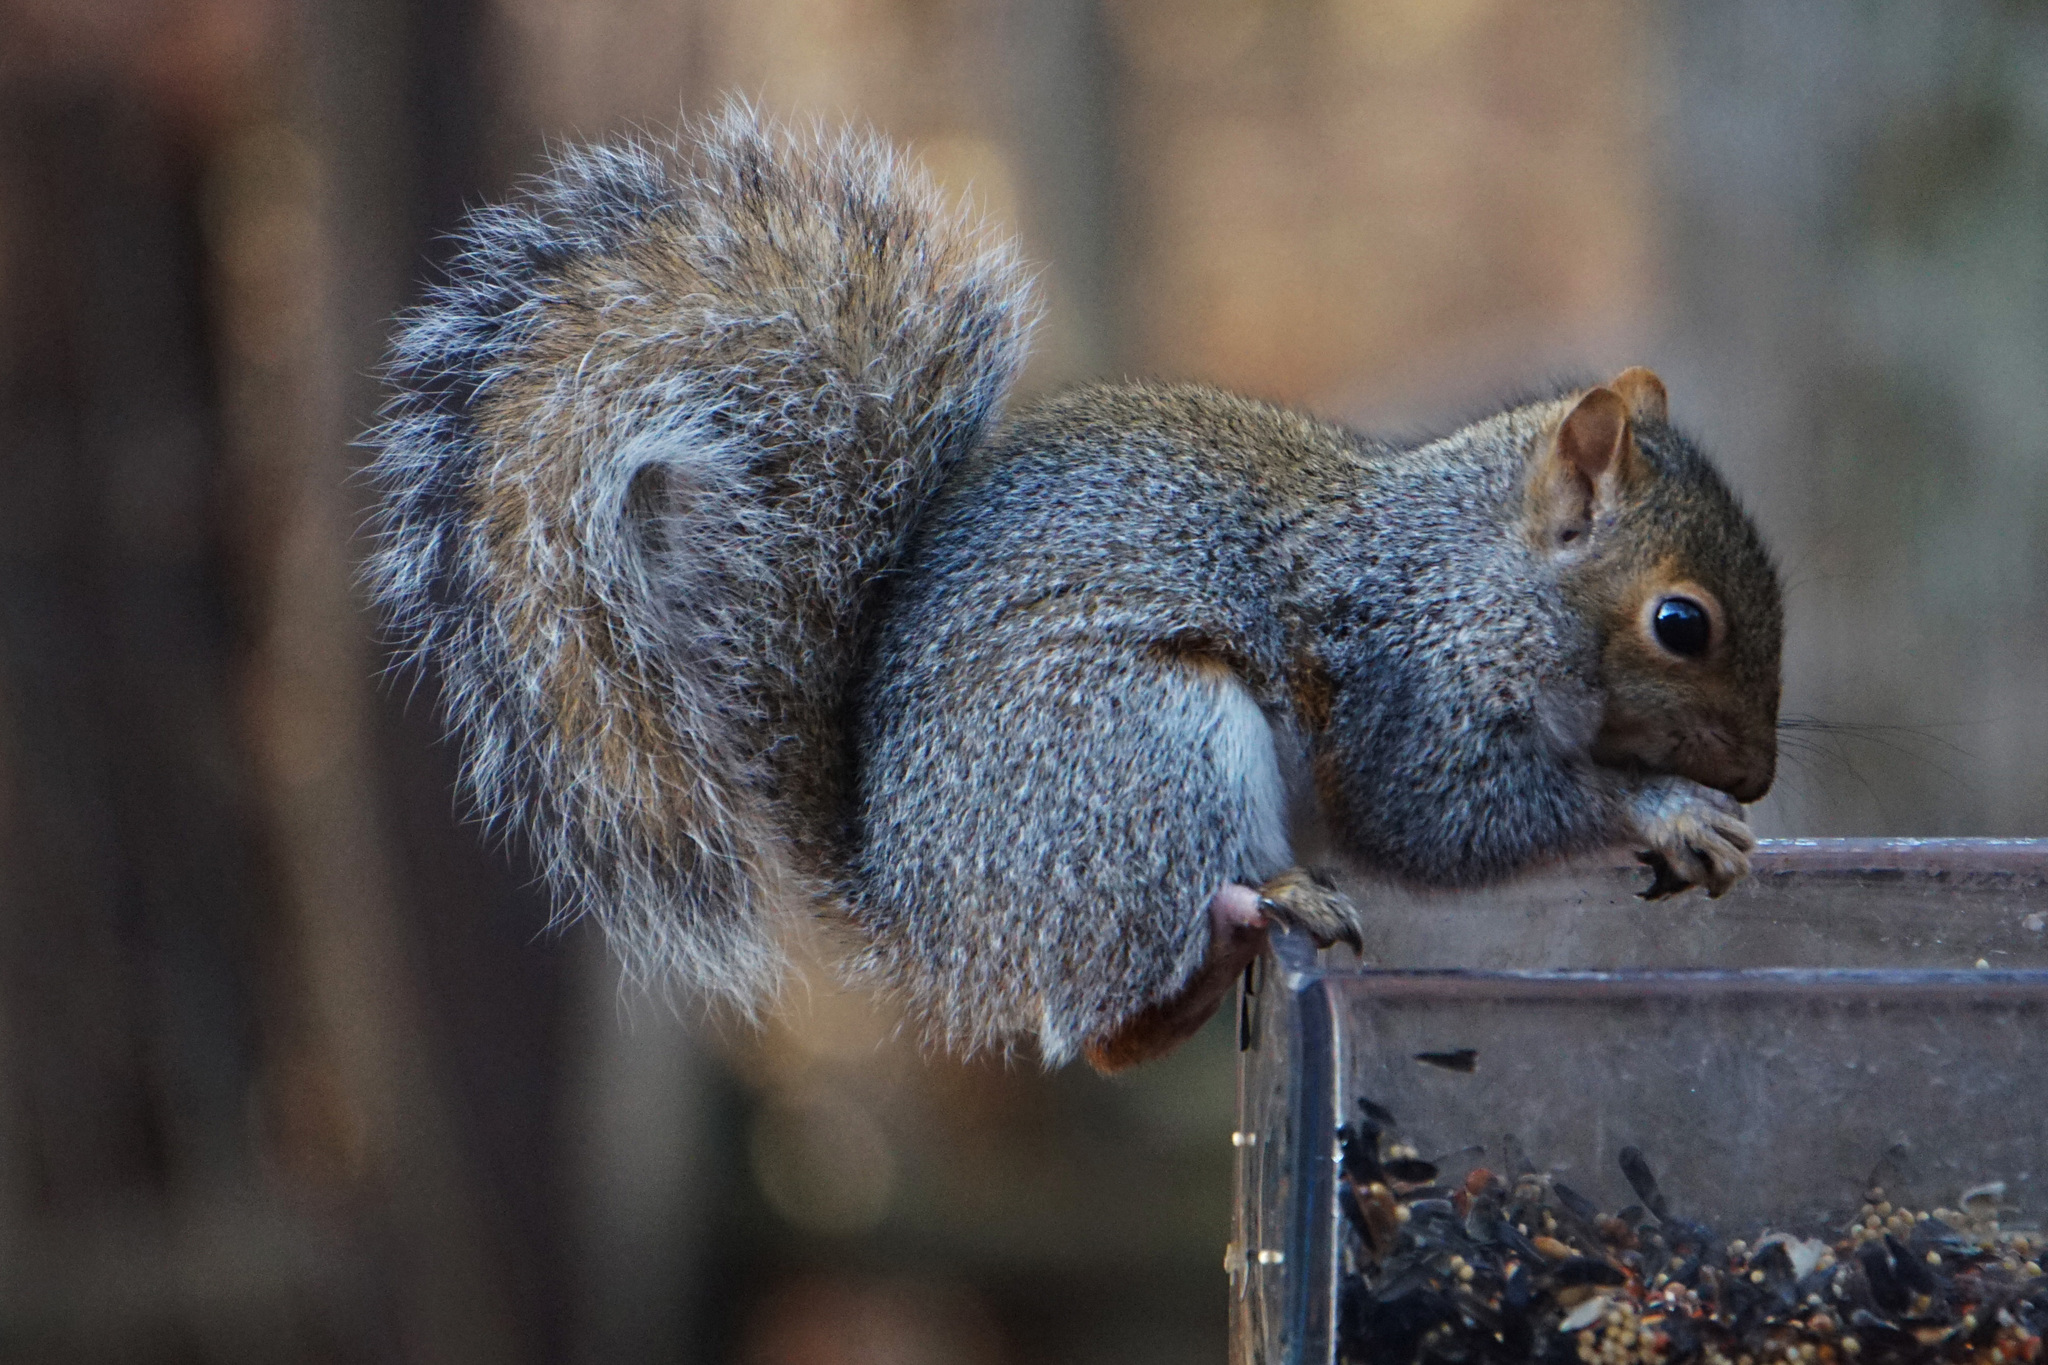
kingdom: Animalia
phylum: Chordata
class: Mammalia
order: Rodentia
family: Sciuridae
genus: Sciurus
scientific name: Sciurus carolinensis
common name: Eastern gray squirrel
